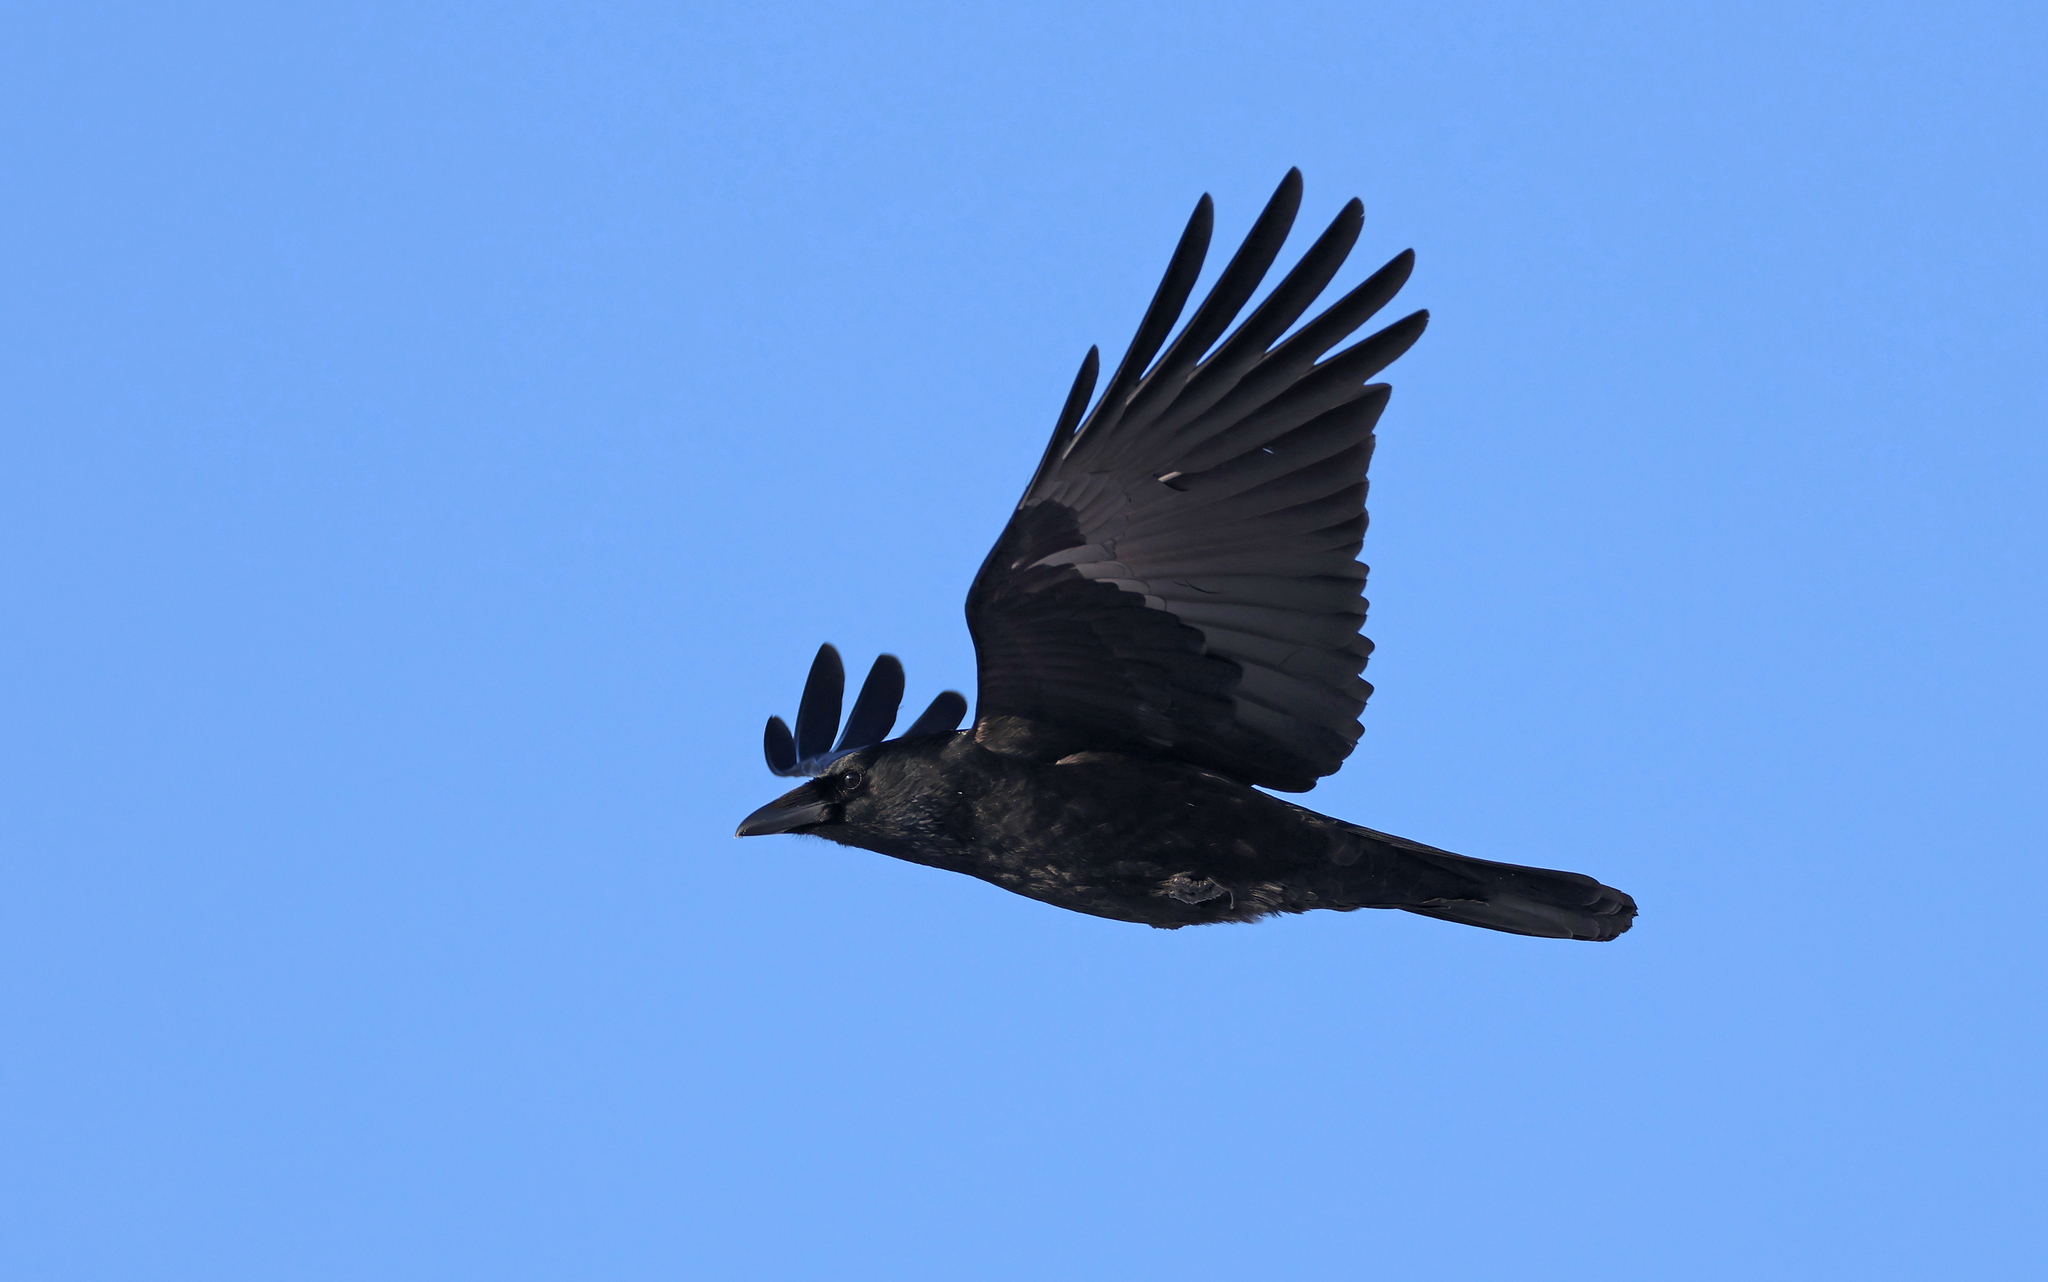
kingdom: Animalia
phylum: Chordata
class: Aves
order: Passeriformes
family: Corvidae
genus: Corvus
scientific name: Corvus corax
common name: Common raven
